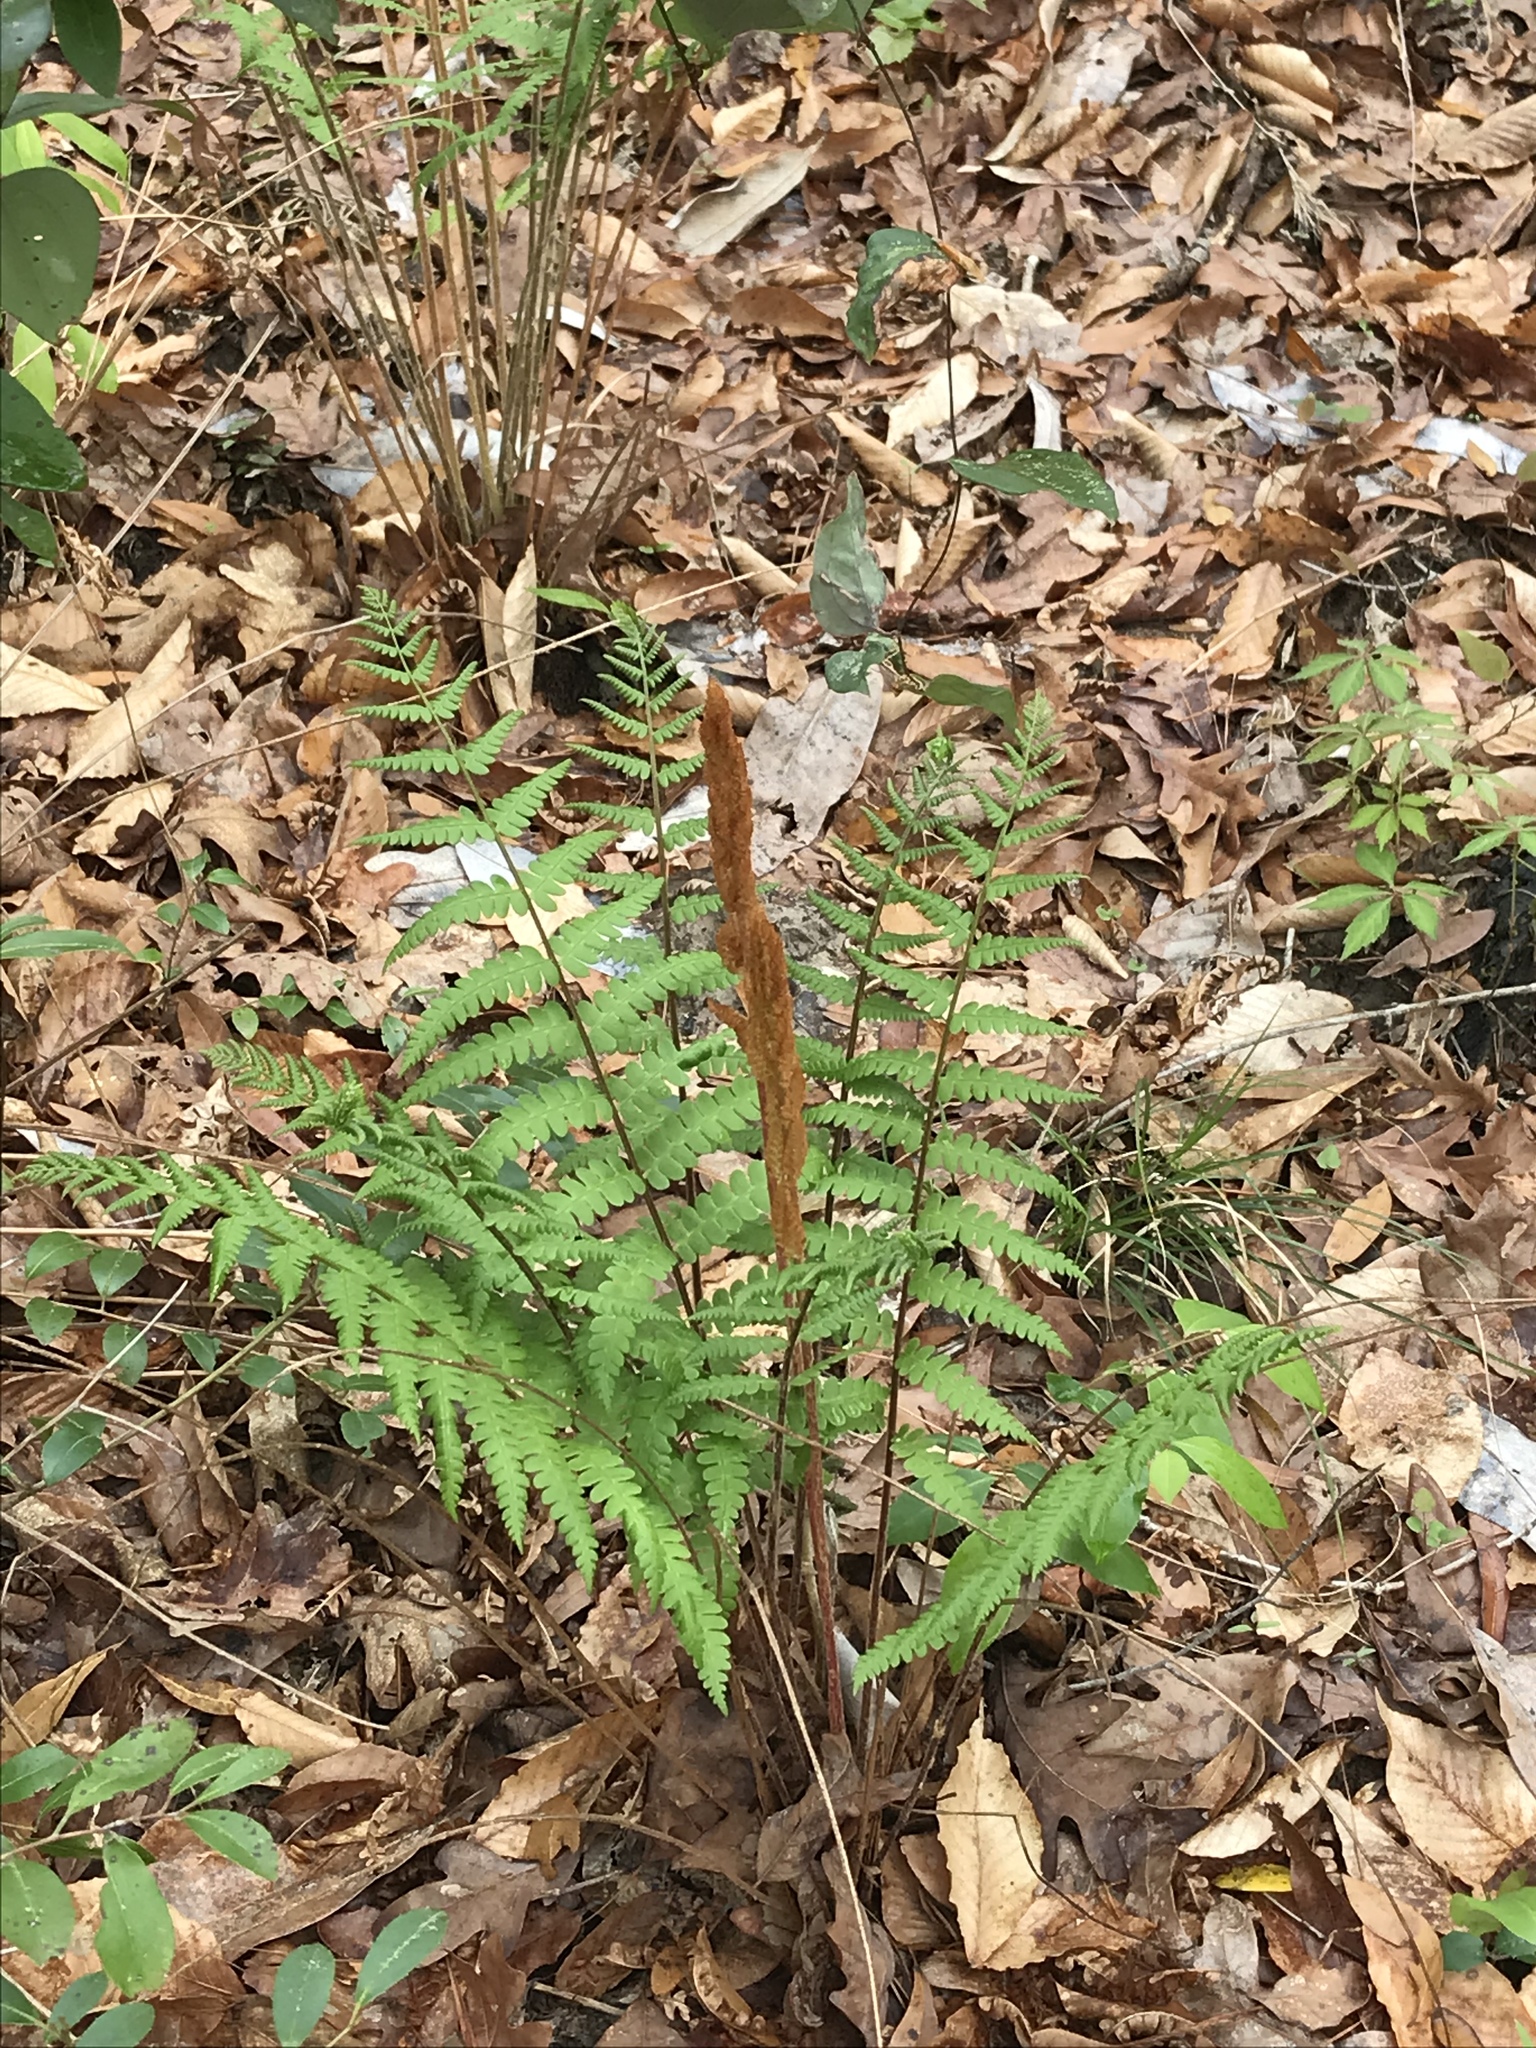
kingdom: Plantae
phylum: Tracheophyta
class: Polypodiopsida
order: Osmundales
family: Osmundaceae
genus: Osmundastrum
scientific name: Osmundastrum cinnamomeum
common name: Cinnamon fern
